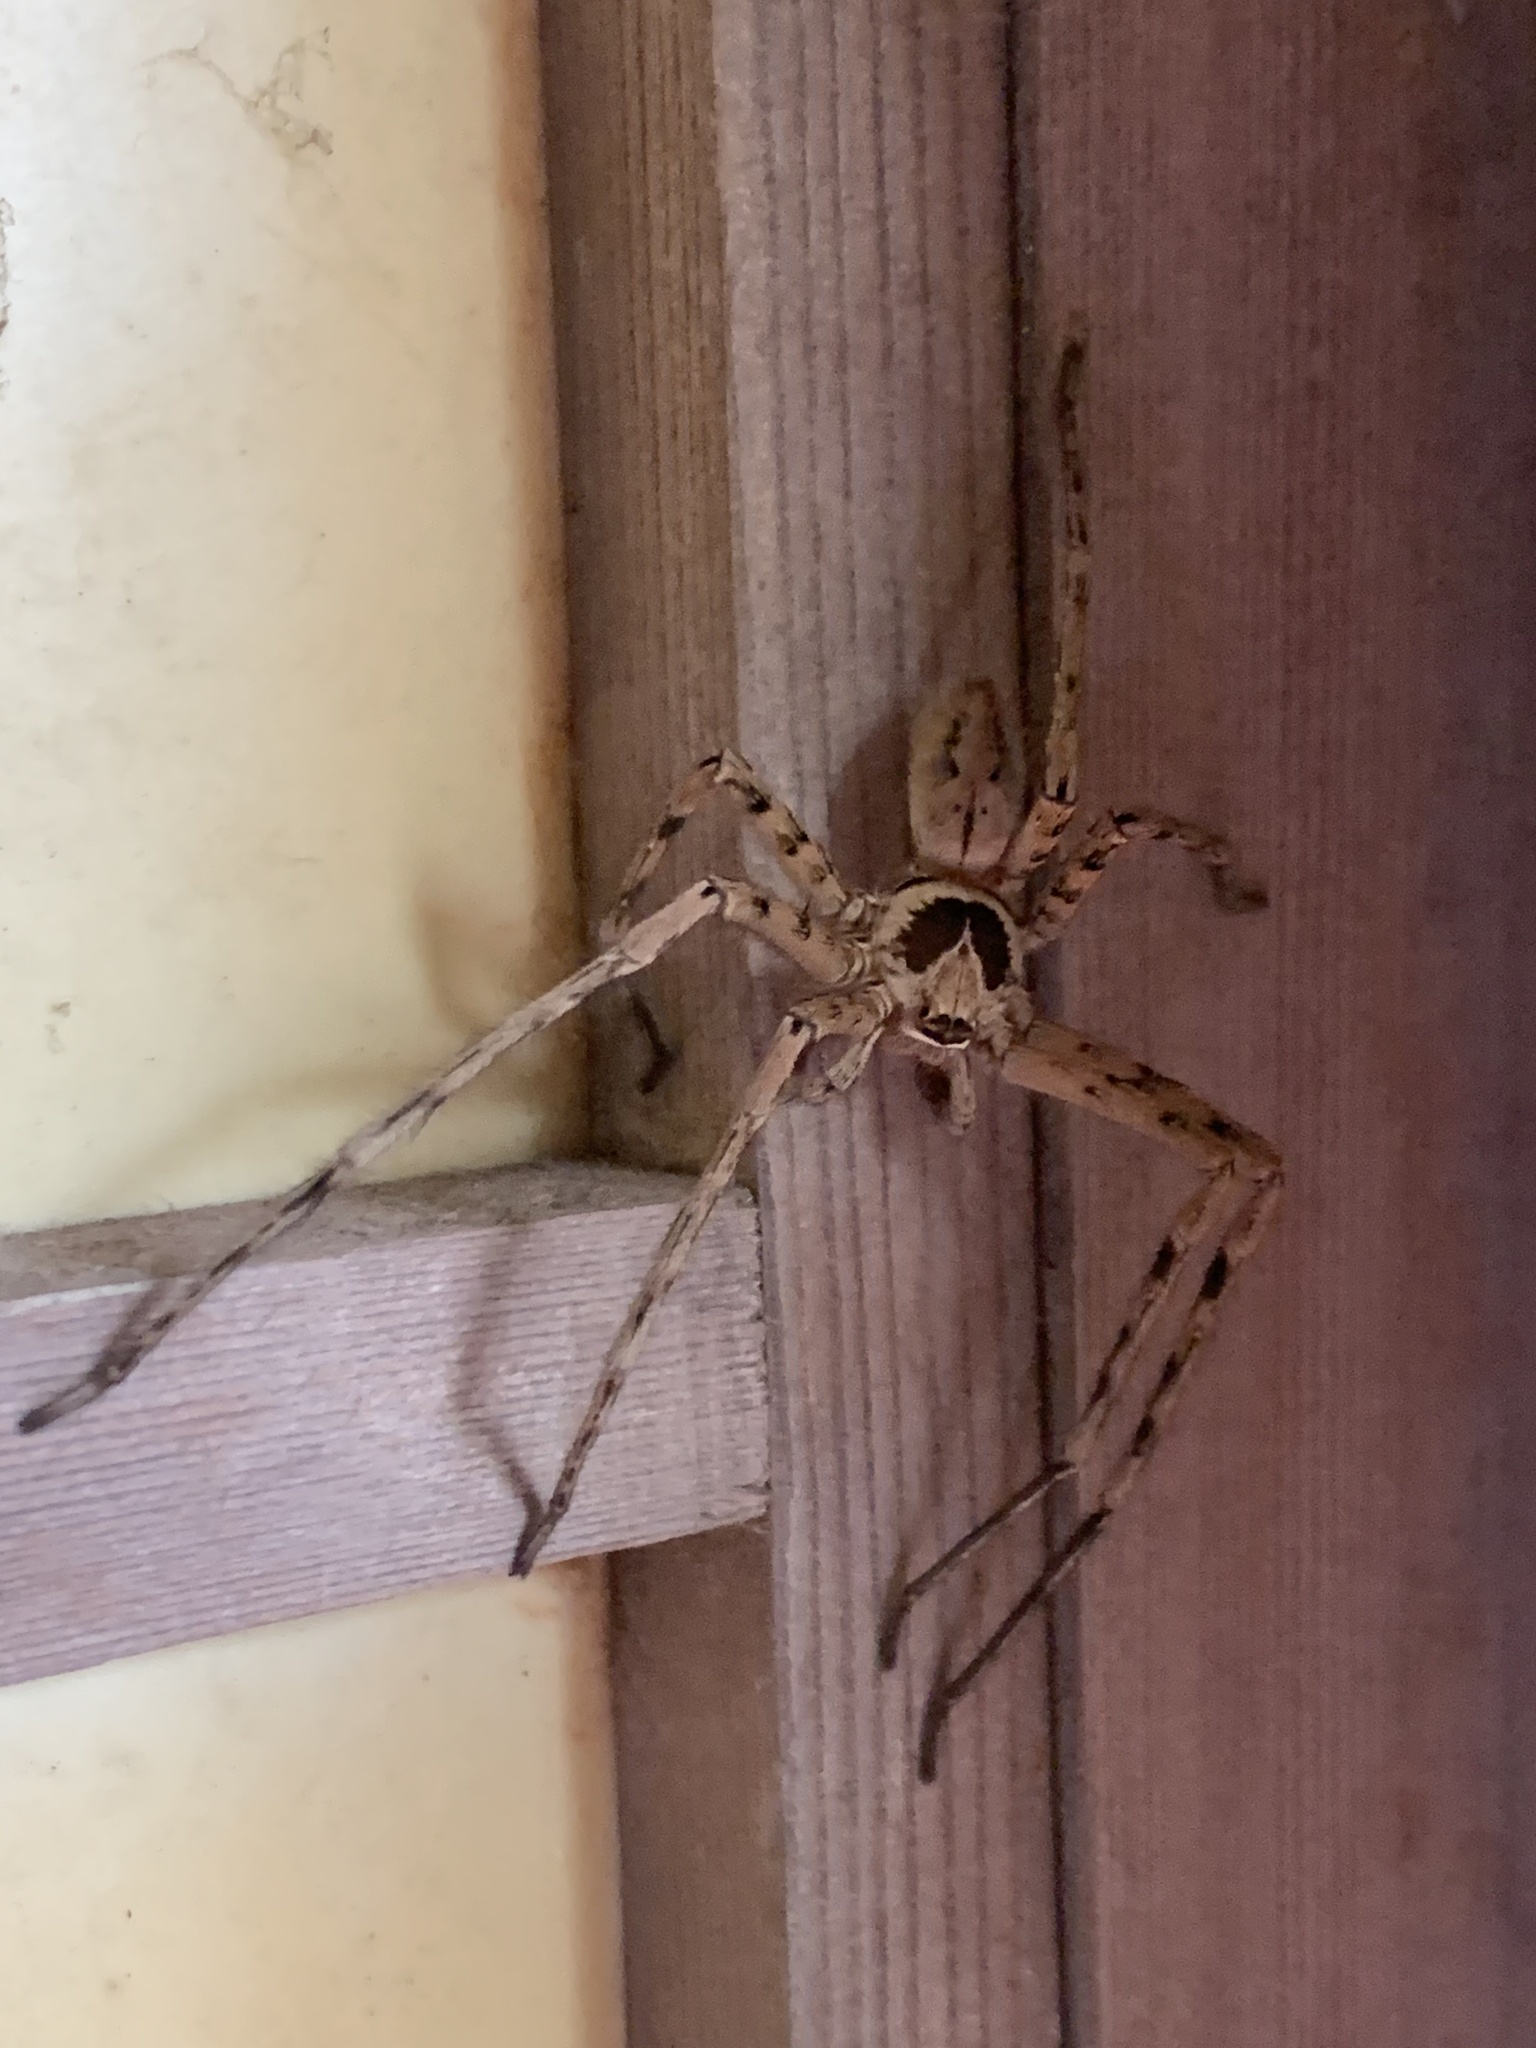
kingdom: Animalia
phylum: Arthropoda
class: Arachnida
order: Araneae
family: Sparassidae
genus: Heteropoda
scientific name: Heteropoda venatoria
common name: Huntsman spider
